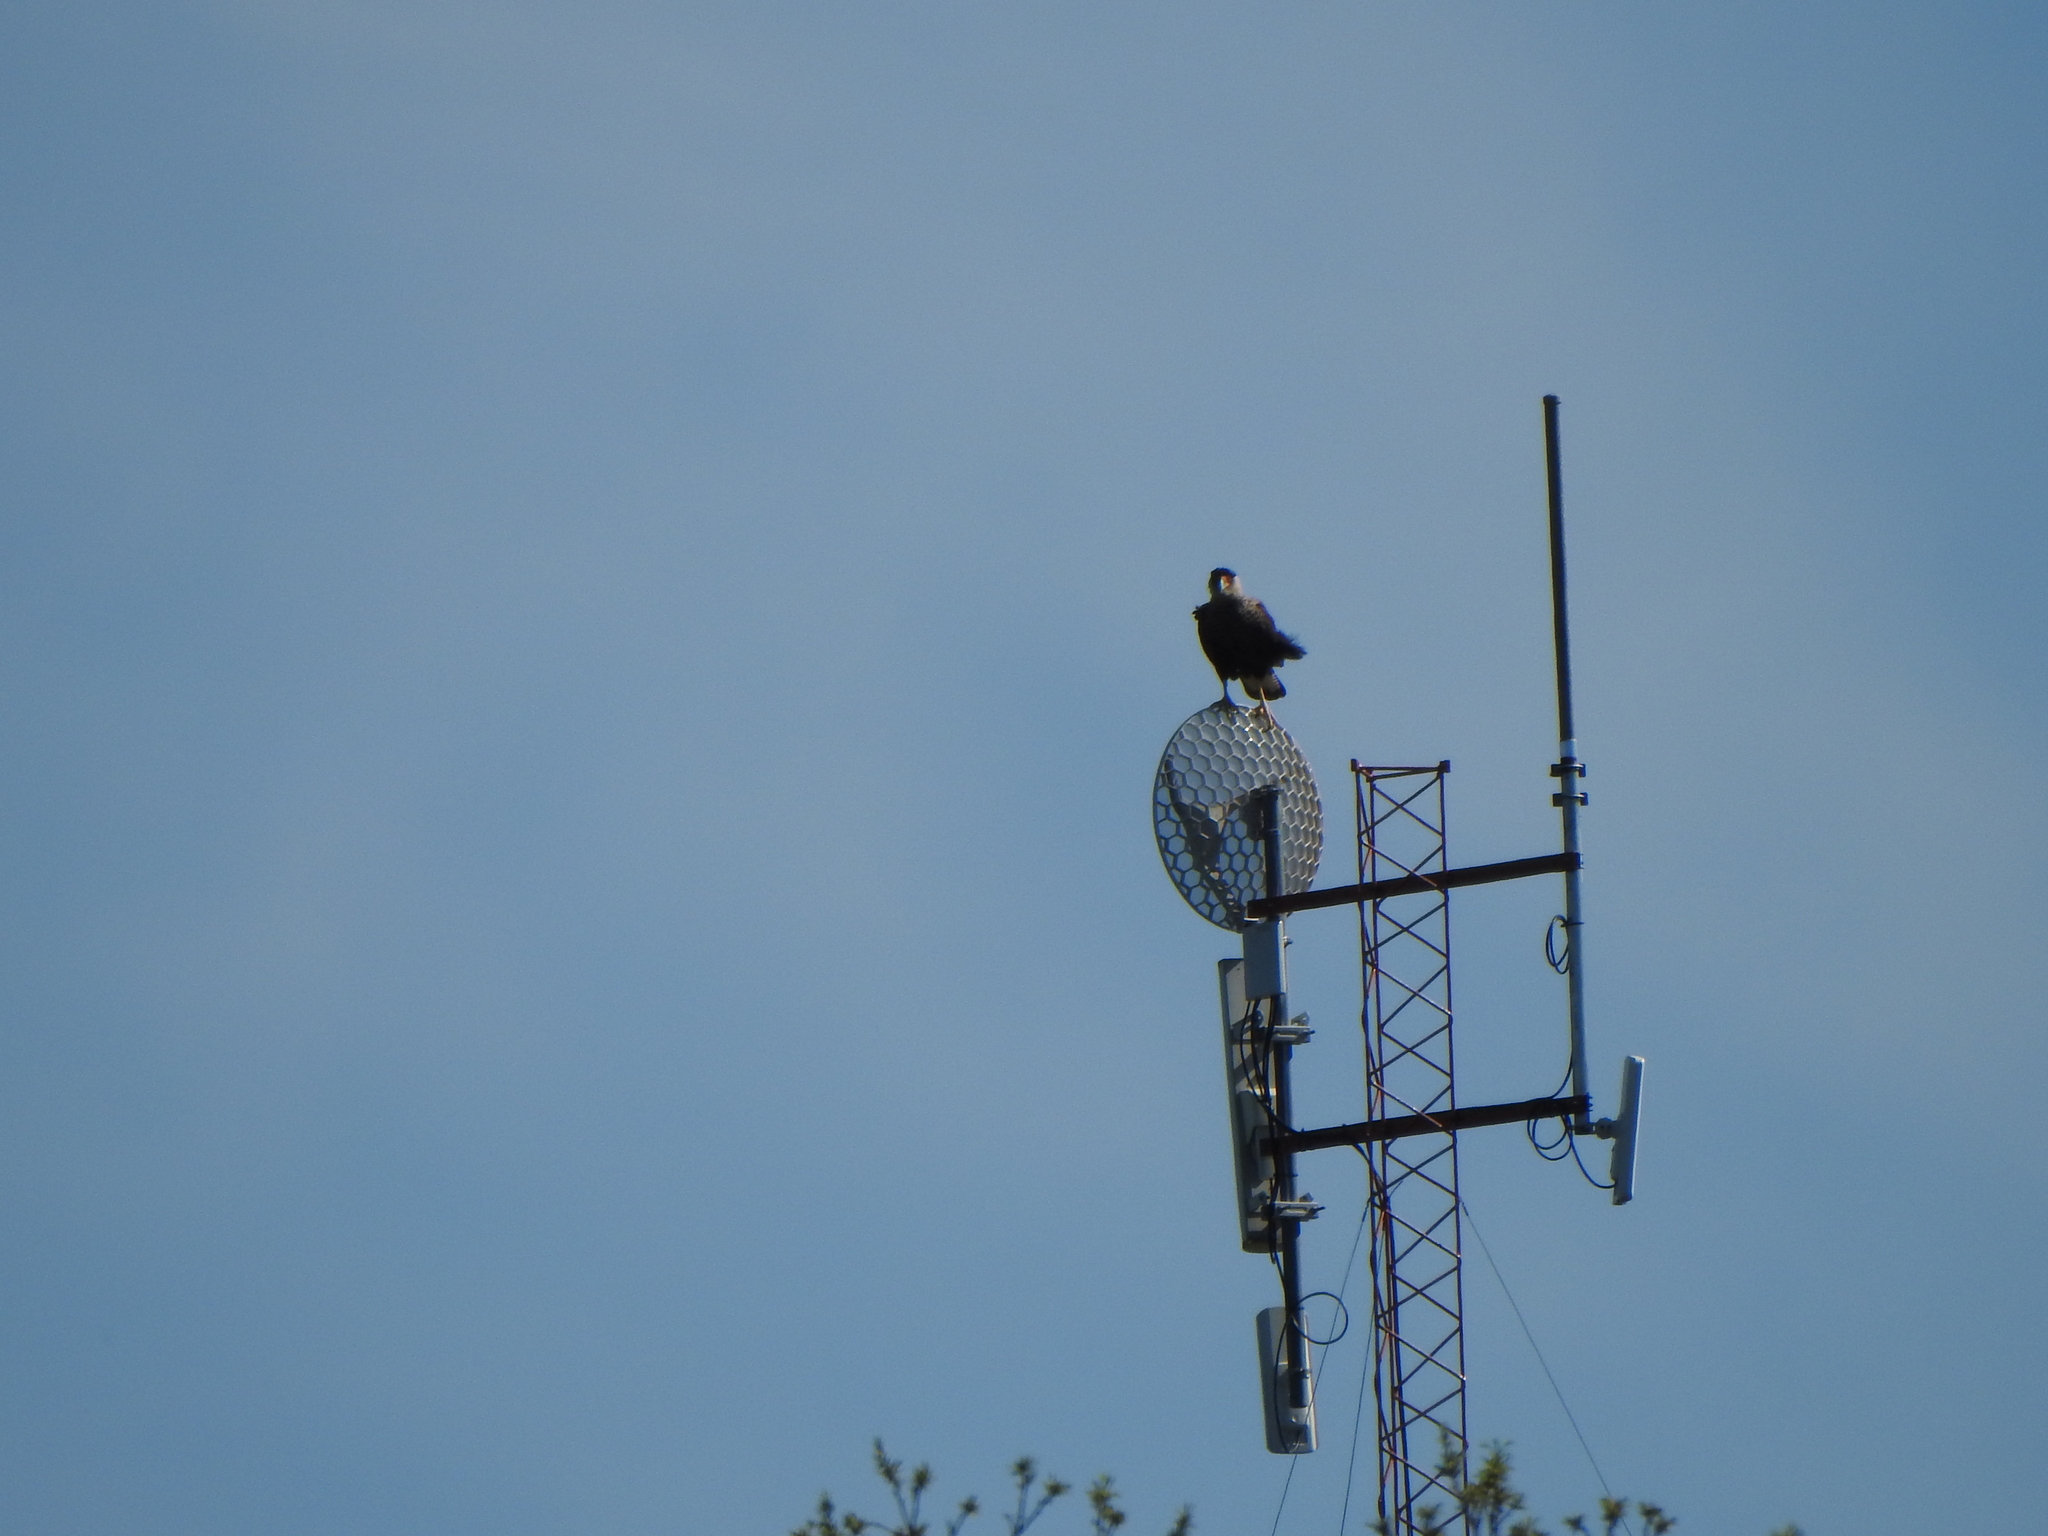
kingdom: Animalia
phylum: Chordata
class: Aves
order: Falconiformes
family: Falconidae
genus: Caracara
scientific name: Caracara plancus
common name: Southern caracara
